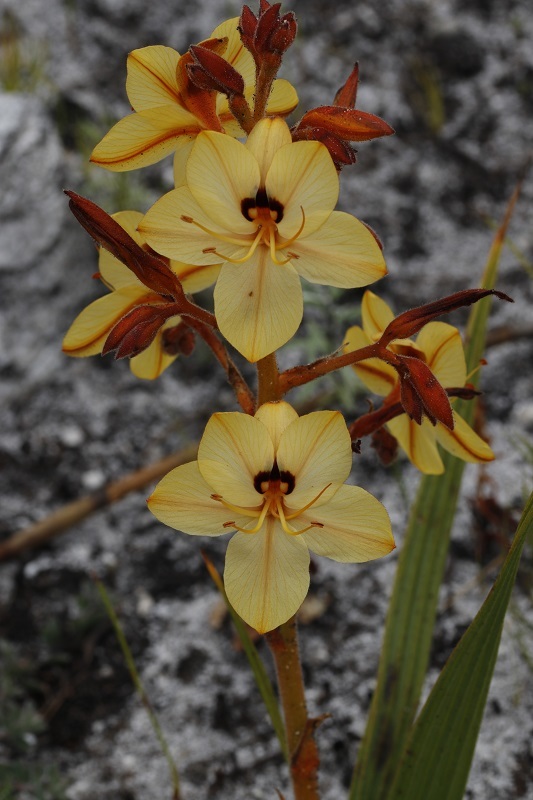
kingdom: Plantae
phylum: Tracheophyta
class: Liliopsida
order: Commelinales
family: Haemodoraceae
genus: Wachendorfia
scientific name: Wachendorfia paniculata
